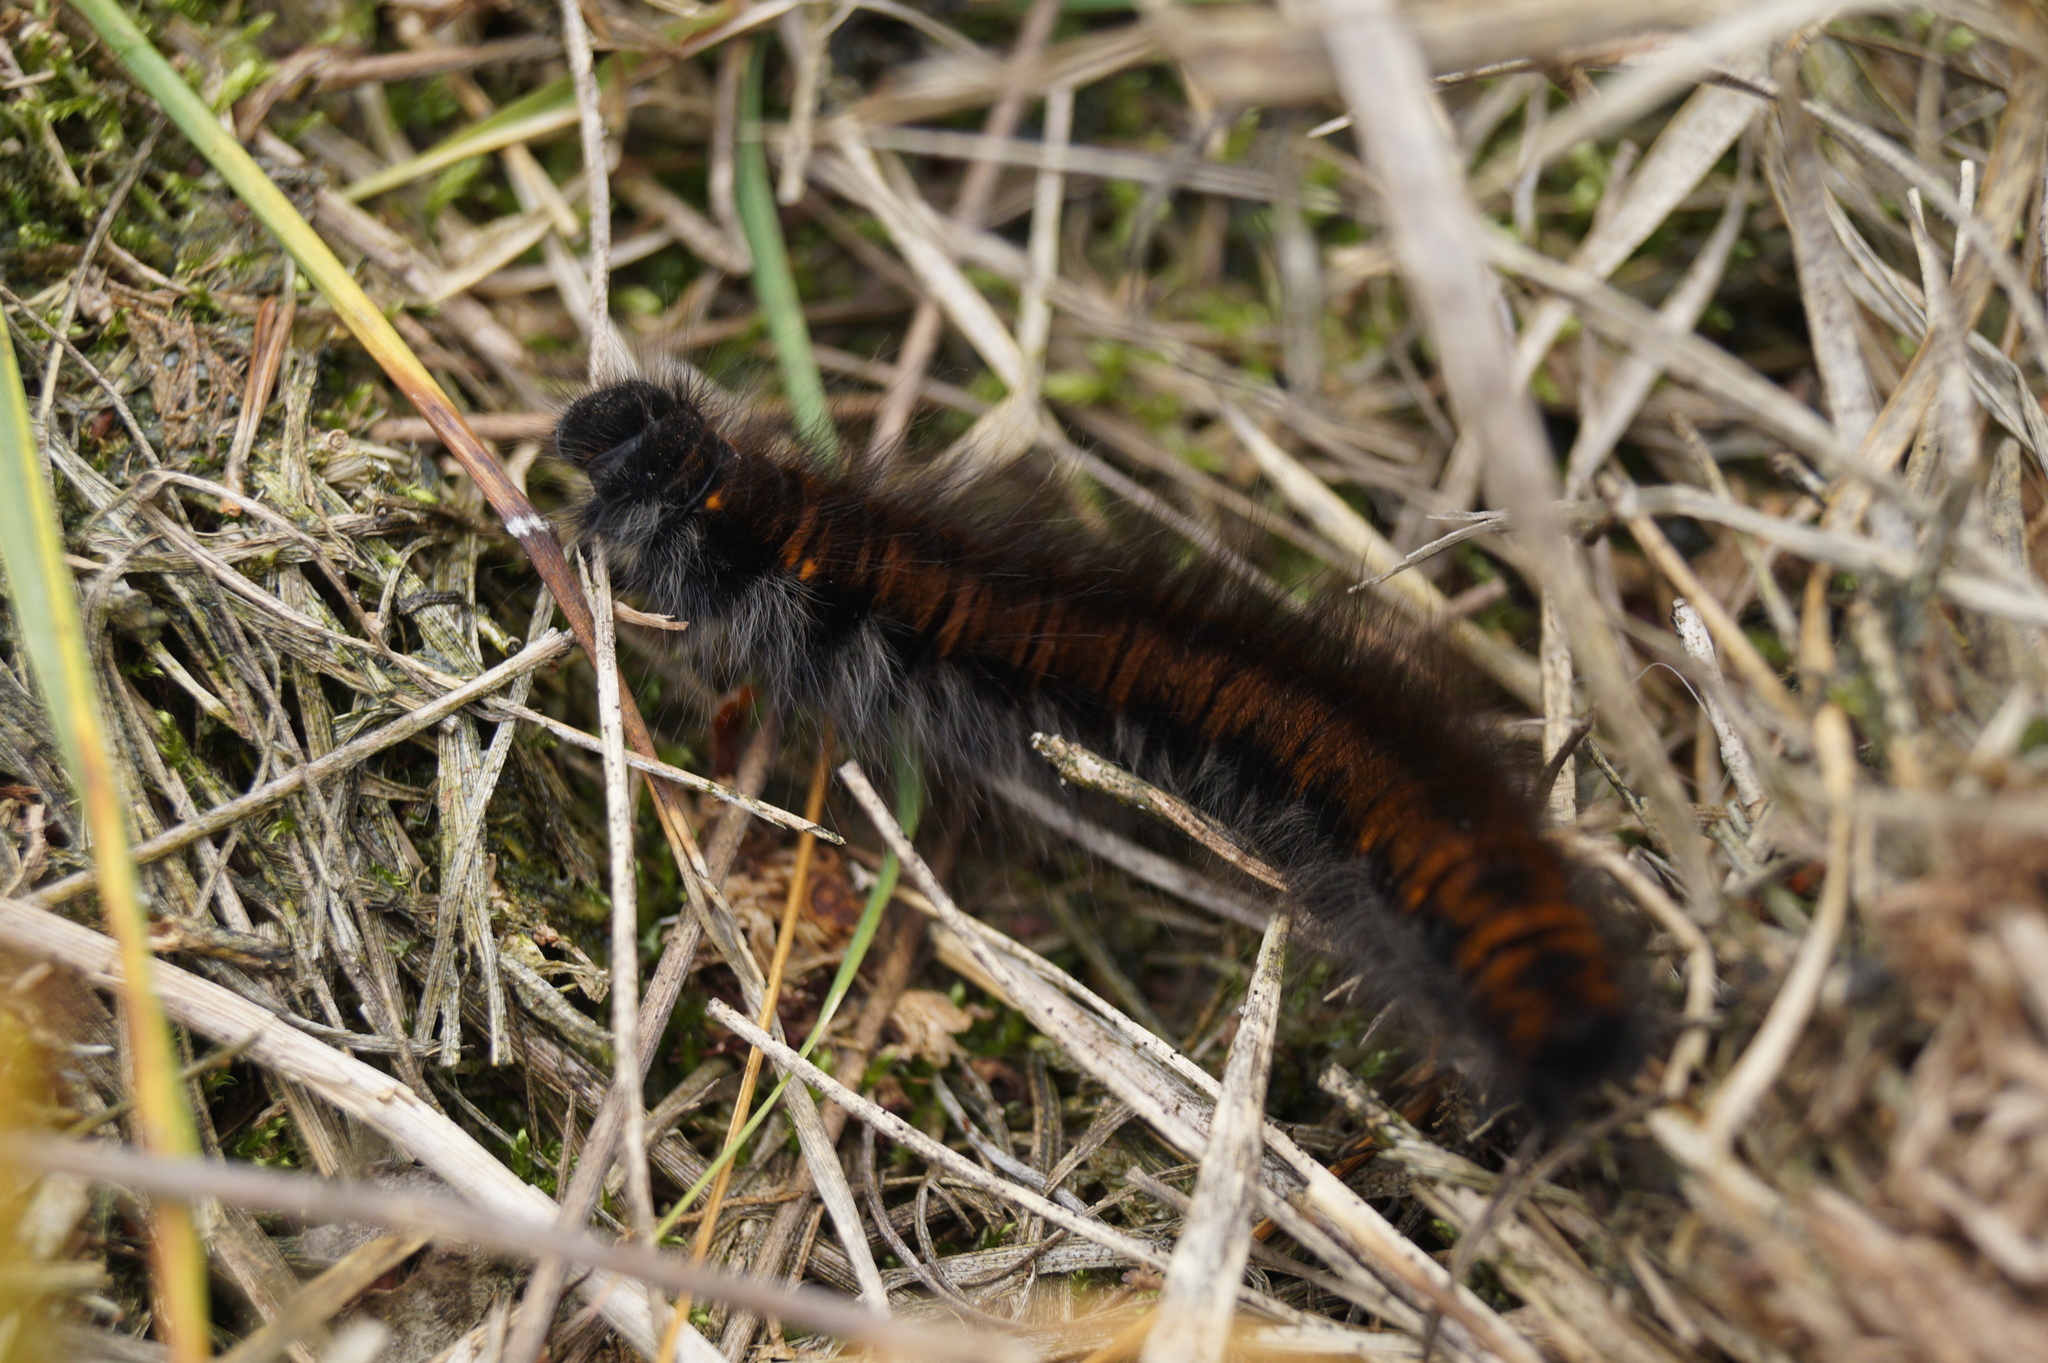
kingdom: Animalia
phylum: Arthropoda
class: Insecta
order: Lepidoptera
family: Lasiocampidae
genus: Macrothylacia
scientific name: Macrothylacia rubi
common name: Fox moth
